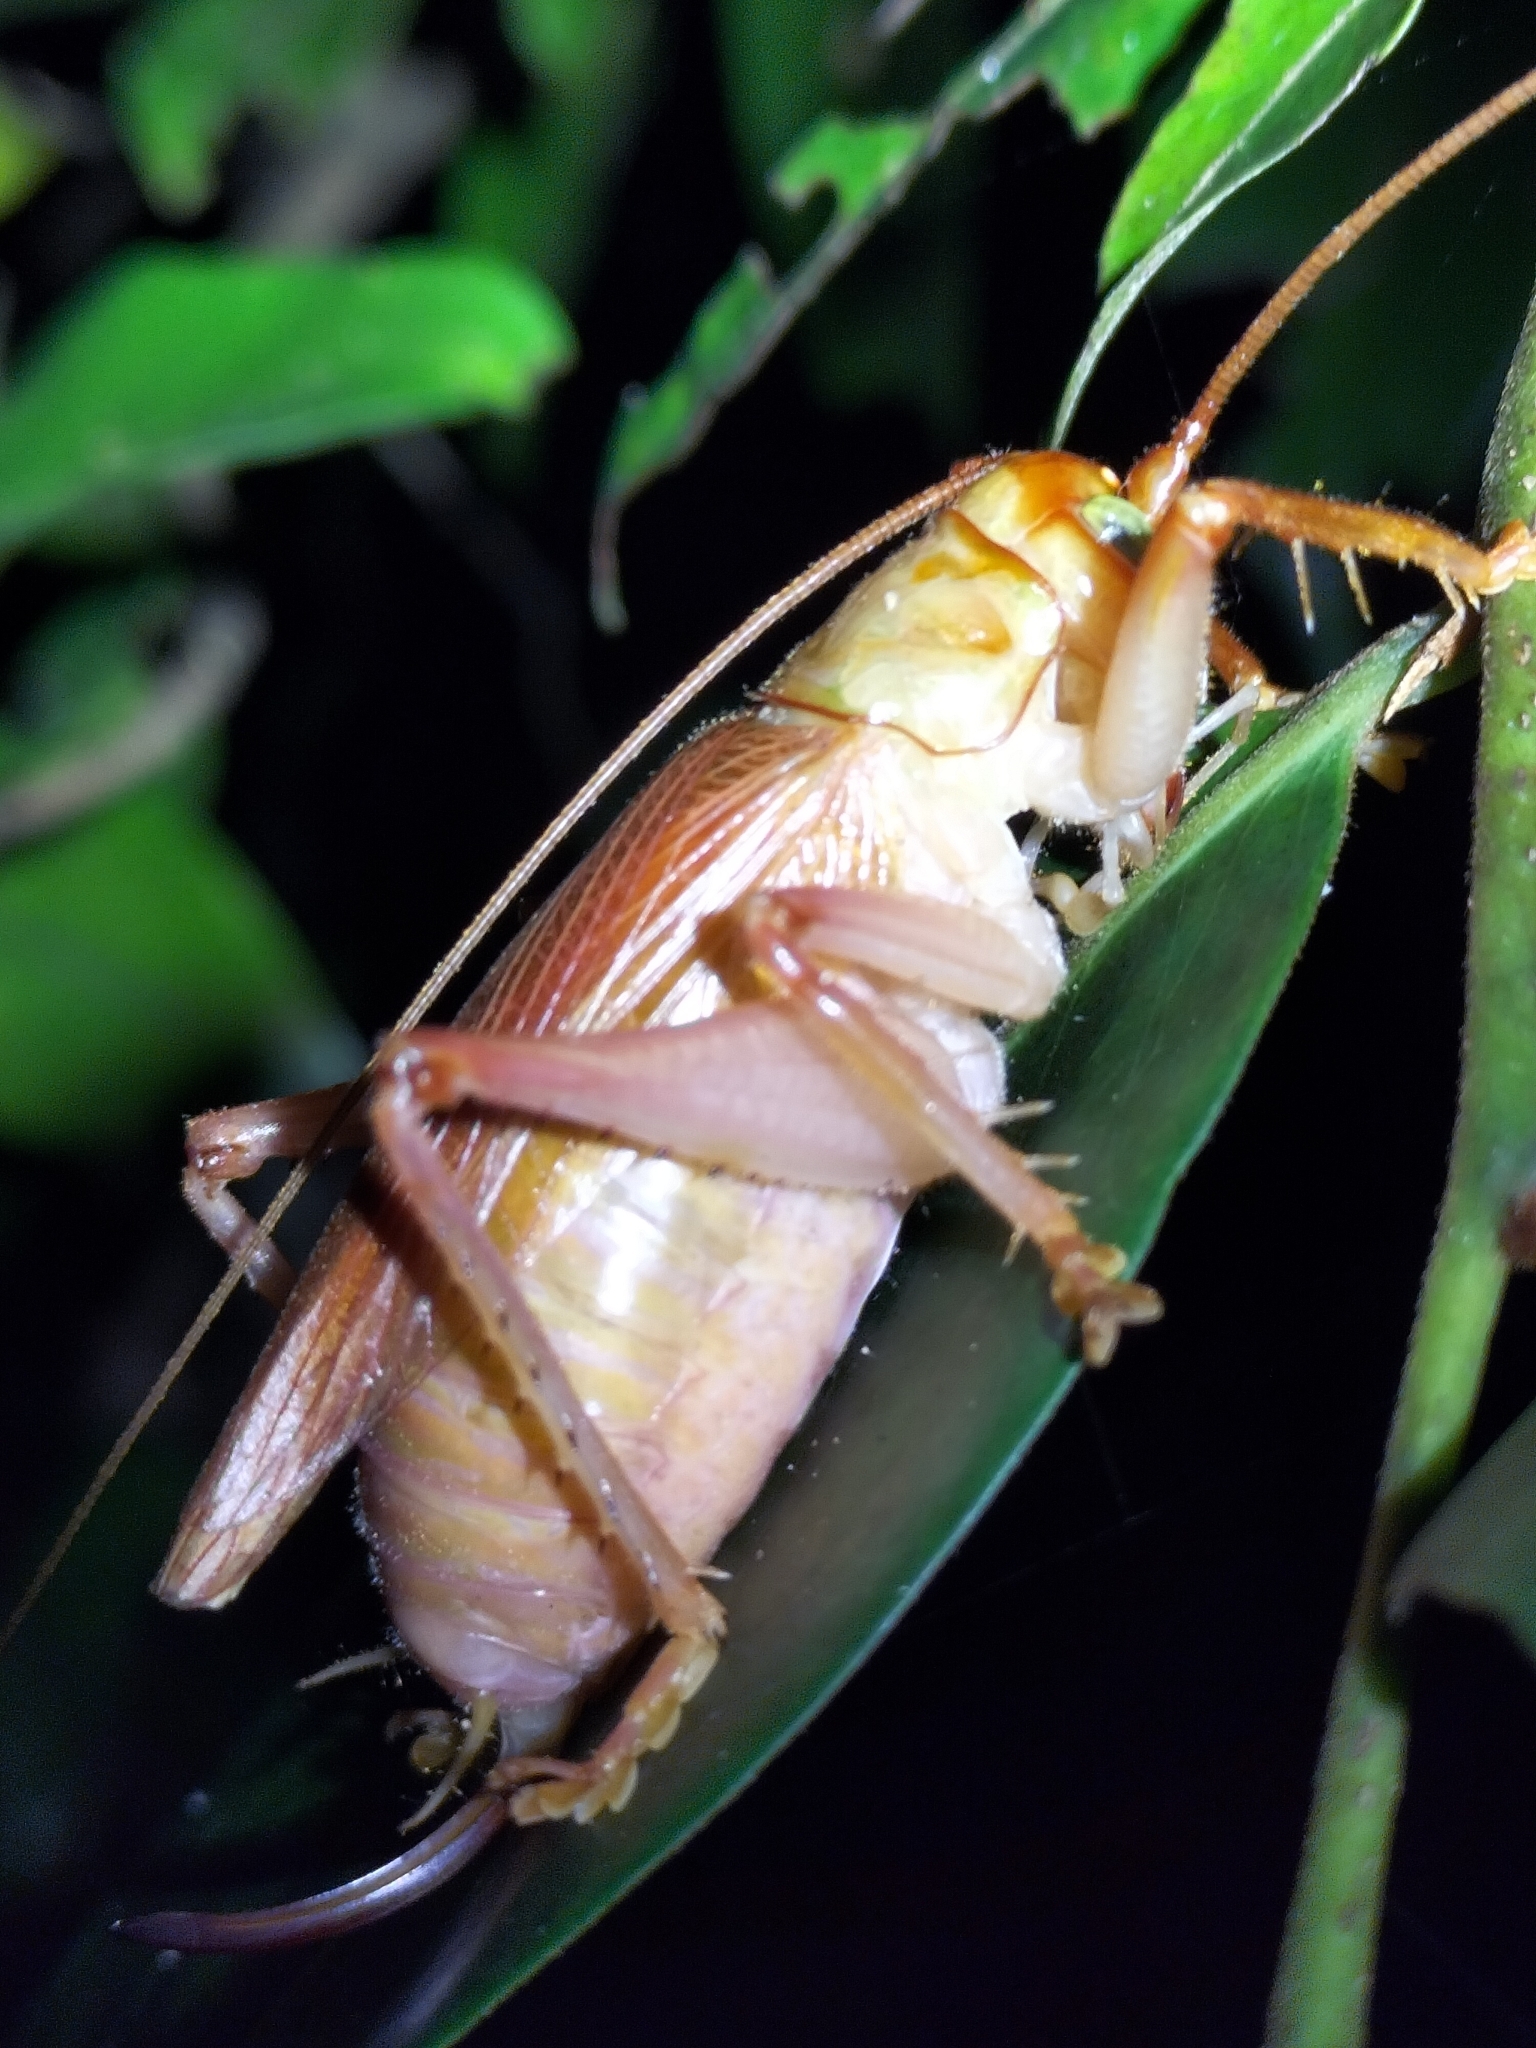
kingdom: Animalia
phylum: Arthropoda
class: Insecta
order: Orthoptera
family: Gryllacrididae
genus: Xanthogryllacris
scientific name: Xanthogryllacris punctipennis
